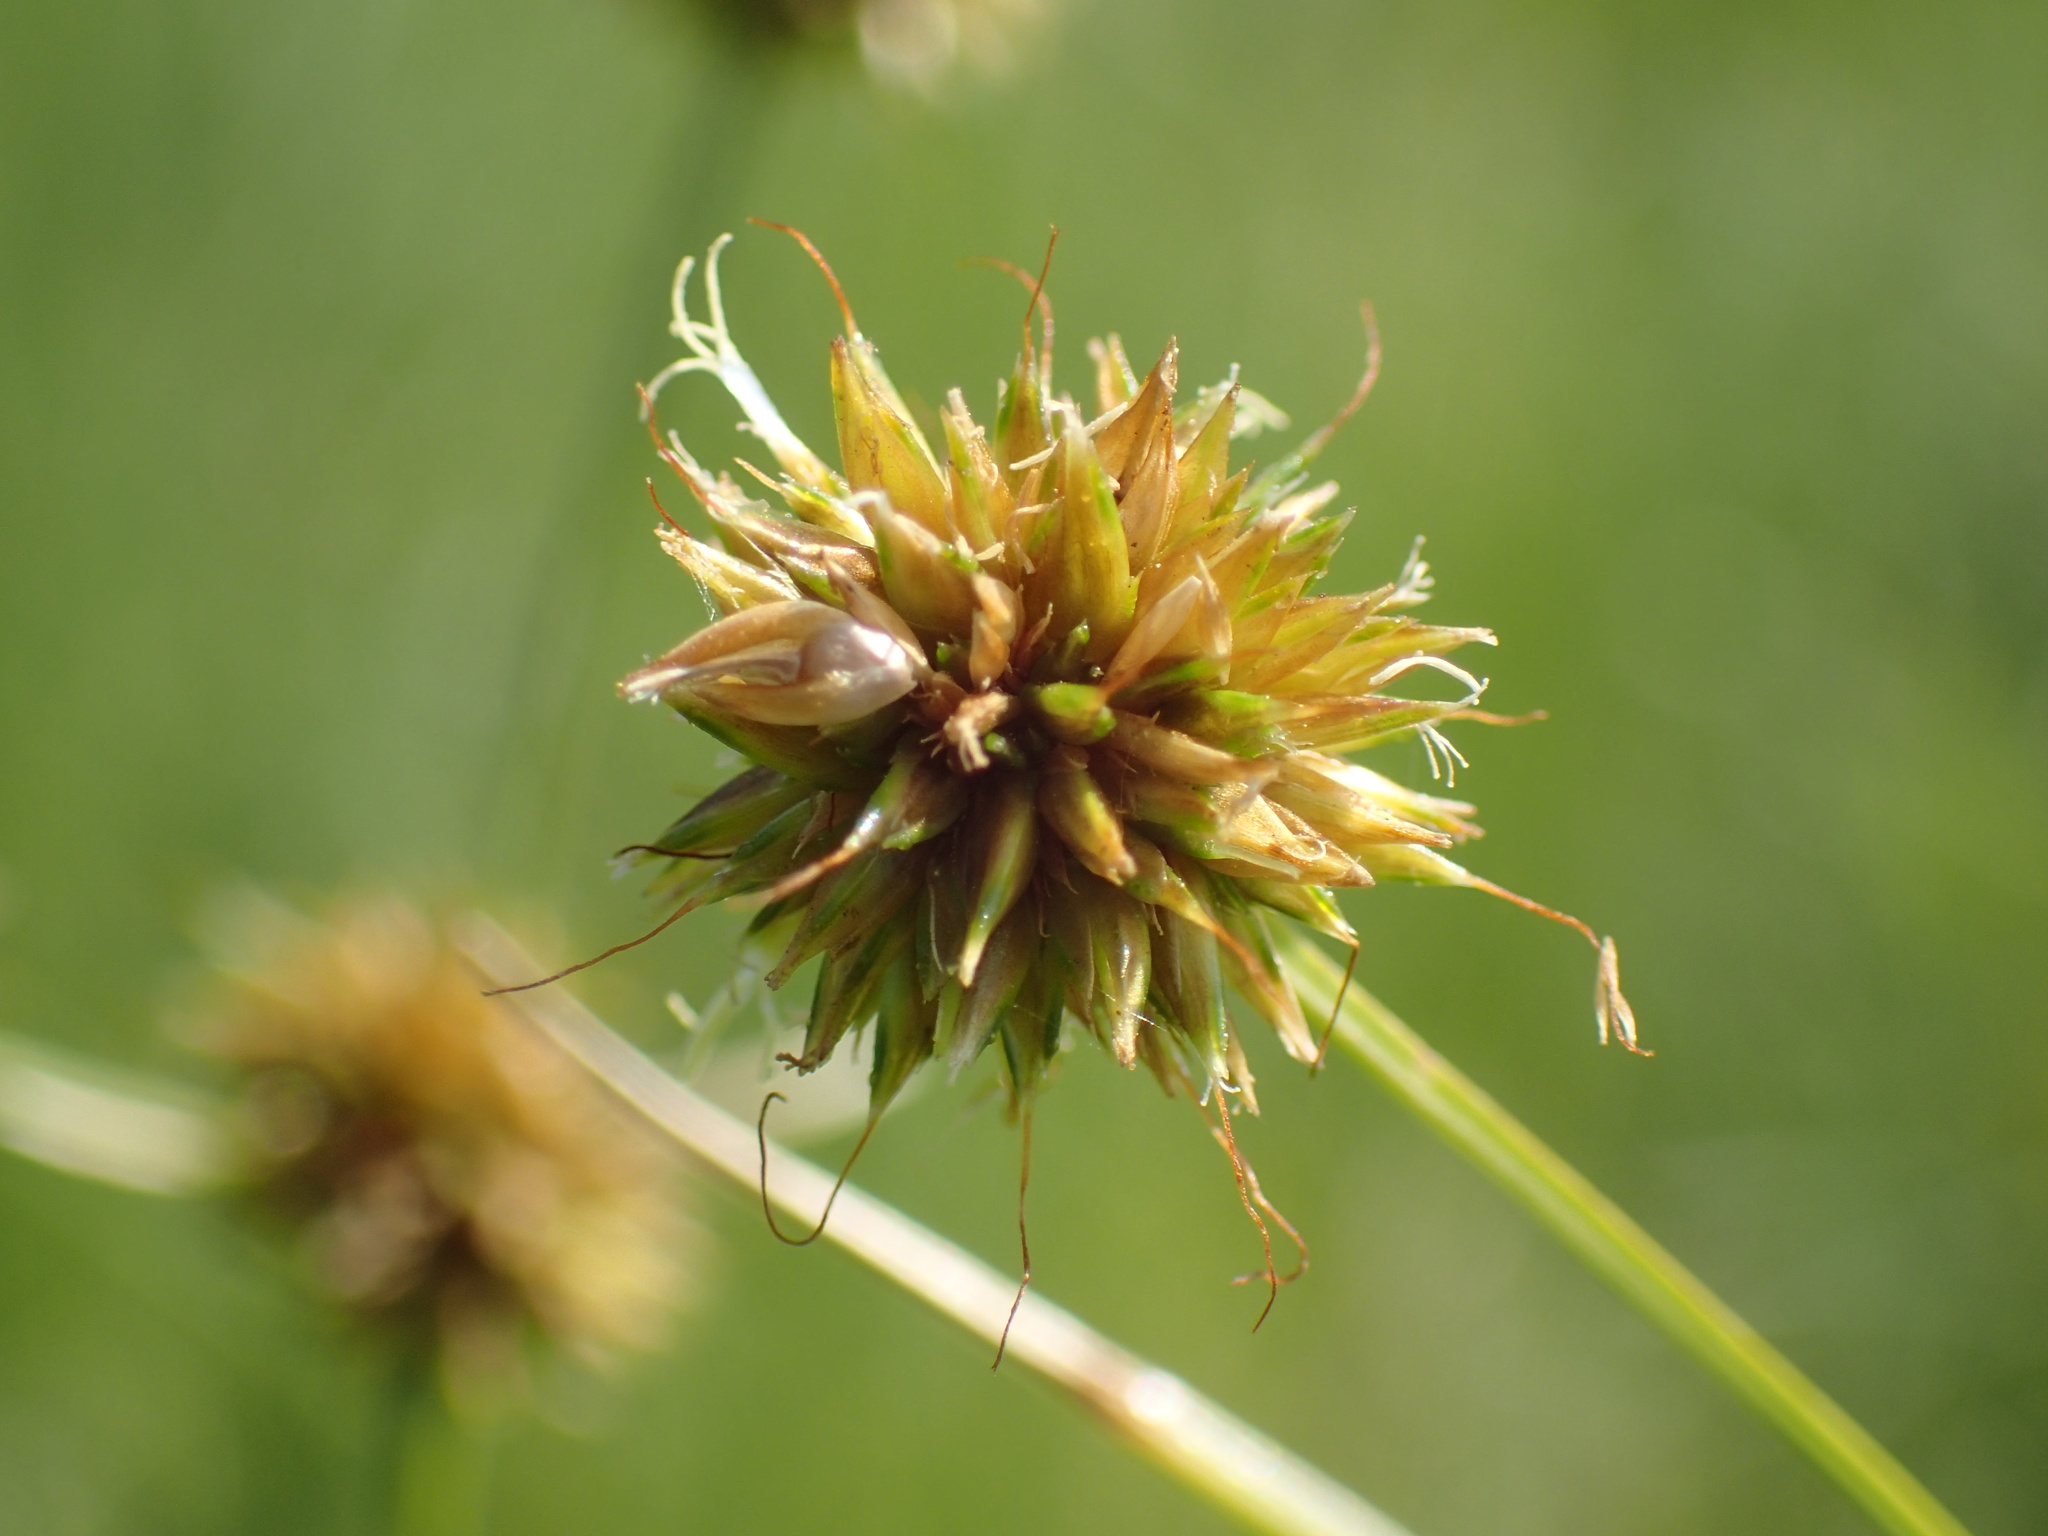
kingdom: Plantae
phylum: Tracheophyta
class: Liliopsida
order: Poales
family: Cyperaceae
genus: Rhynchospora
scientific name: Rhynchospora holoschoenoides
